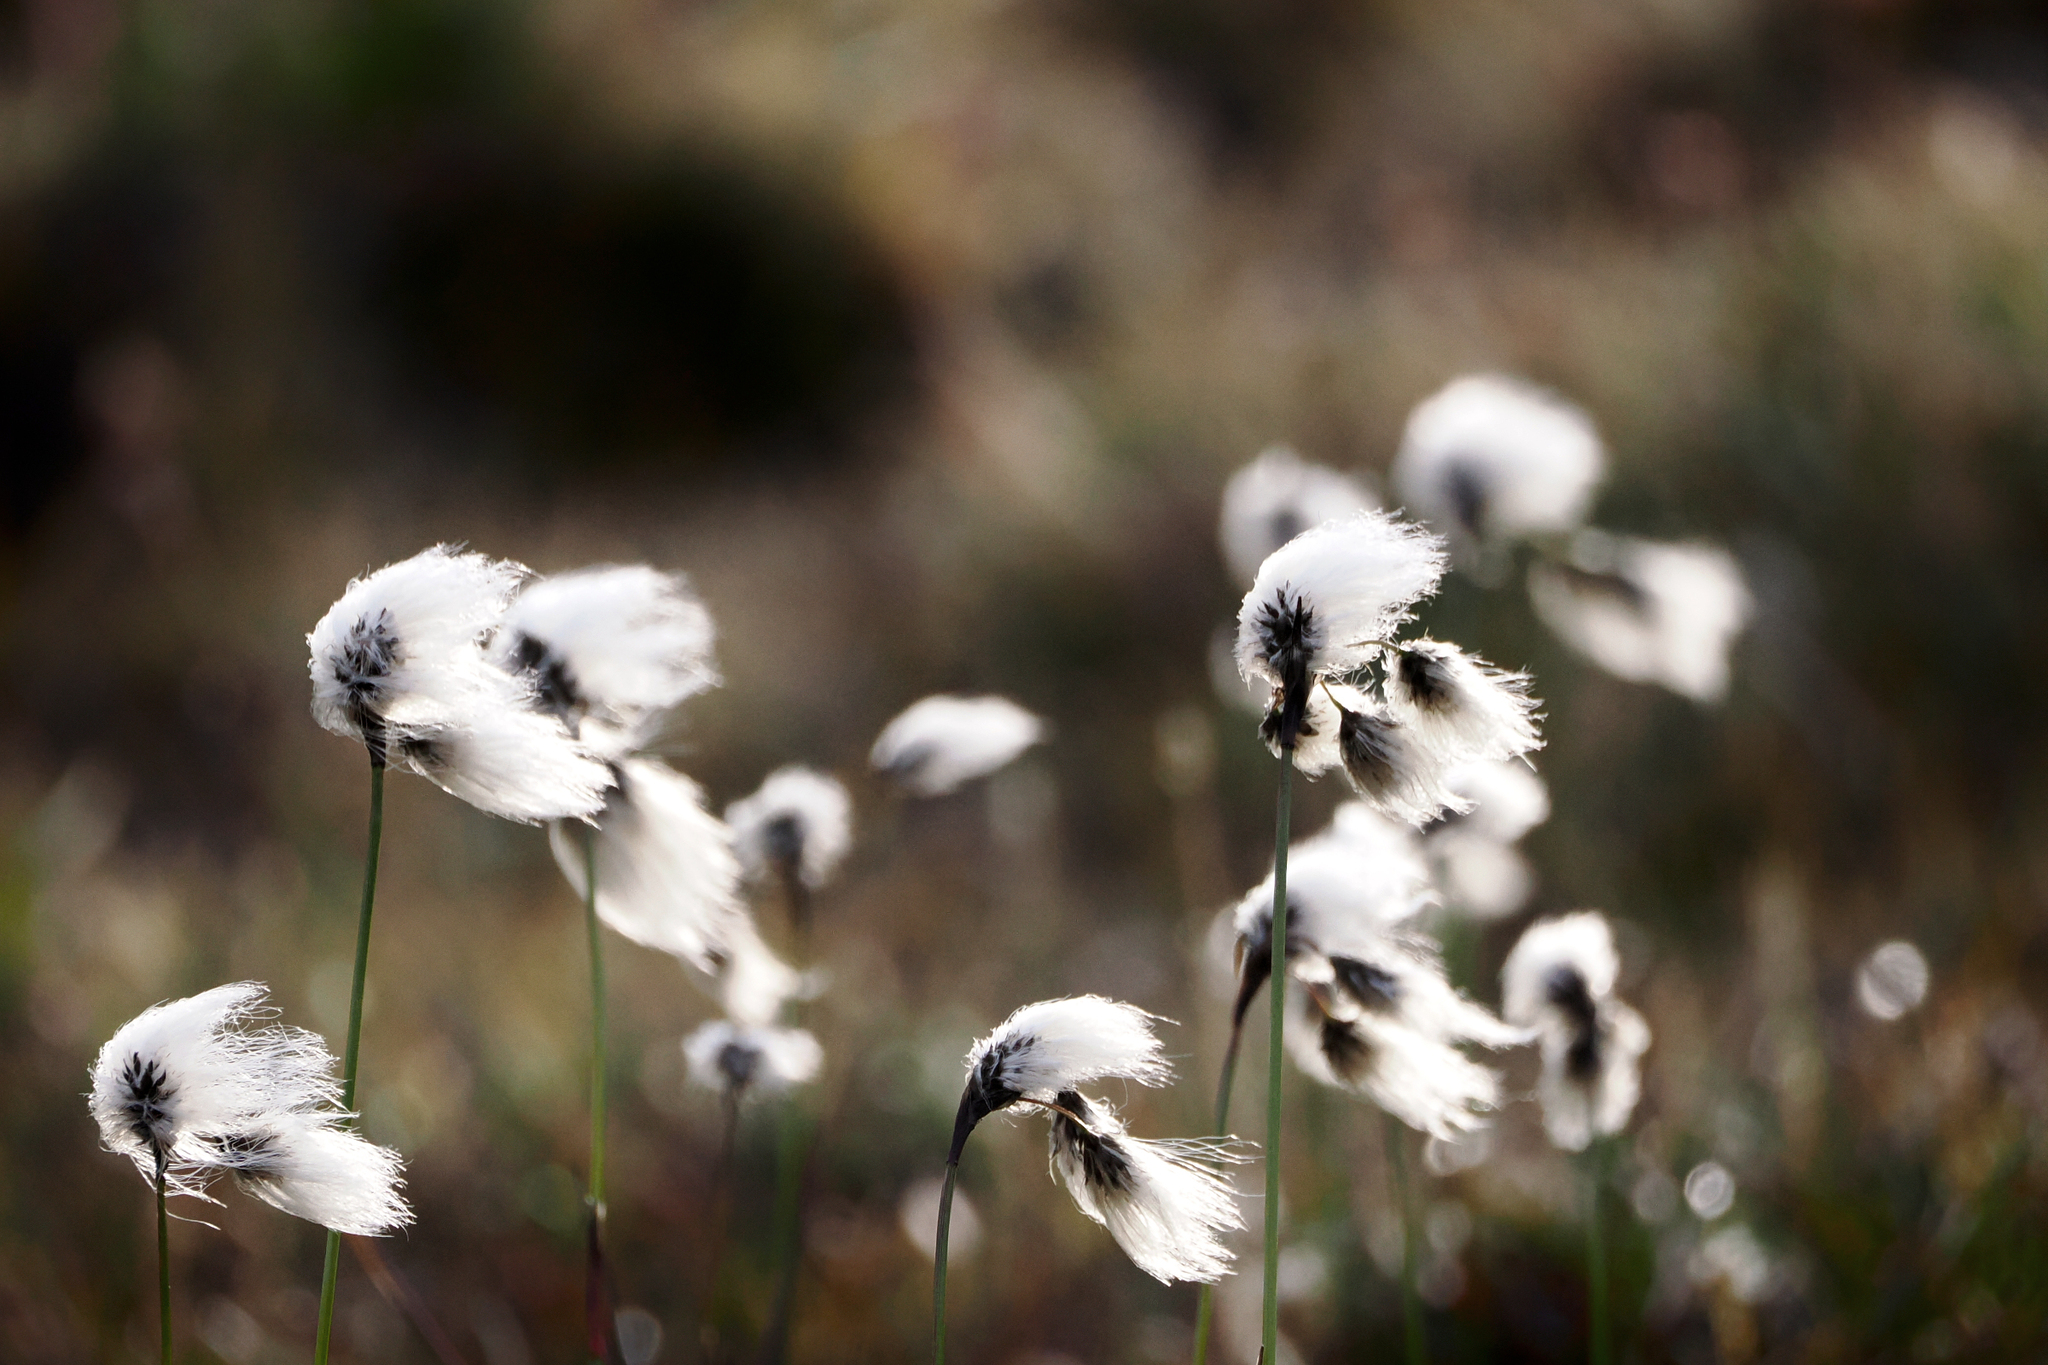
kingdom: Plantae
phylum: Tracheophyta
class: Liliopsida
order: Poales
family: Cyperaceae
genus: Eriophorum
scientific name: Eriophorum angustifolium
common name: Common cottongrass
